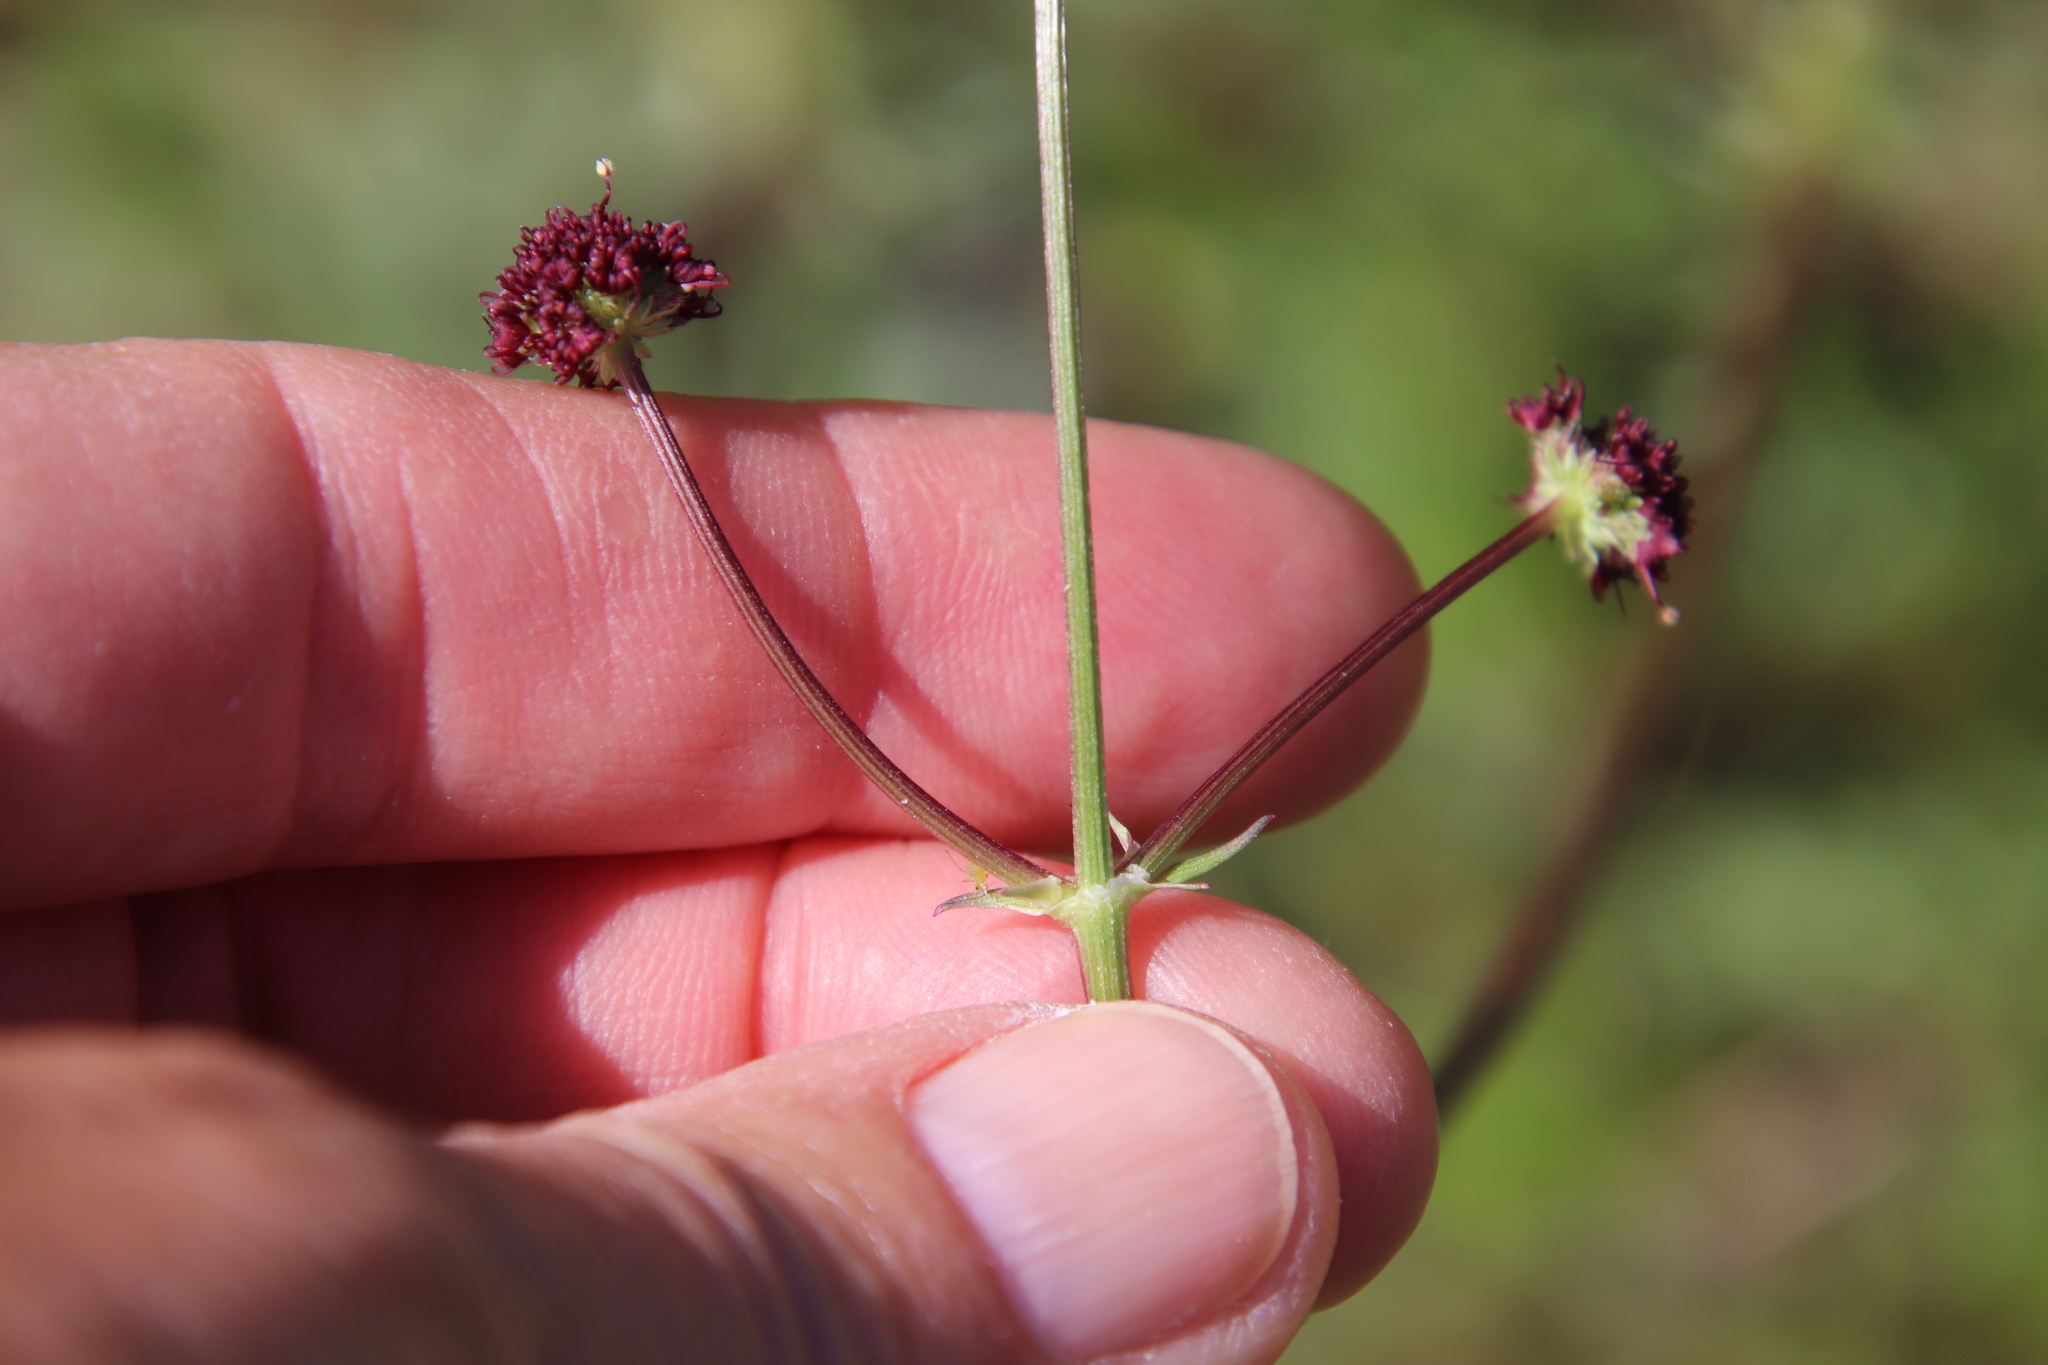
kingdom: Plantae
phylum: Tracheophyta
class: Magnoliopsida
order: Apiales
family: Apiaceae
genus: Sanicula
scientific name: Sanicula bipinnatifida
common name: Shoe-buttons
